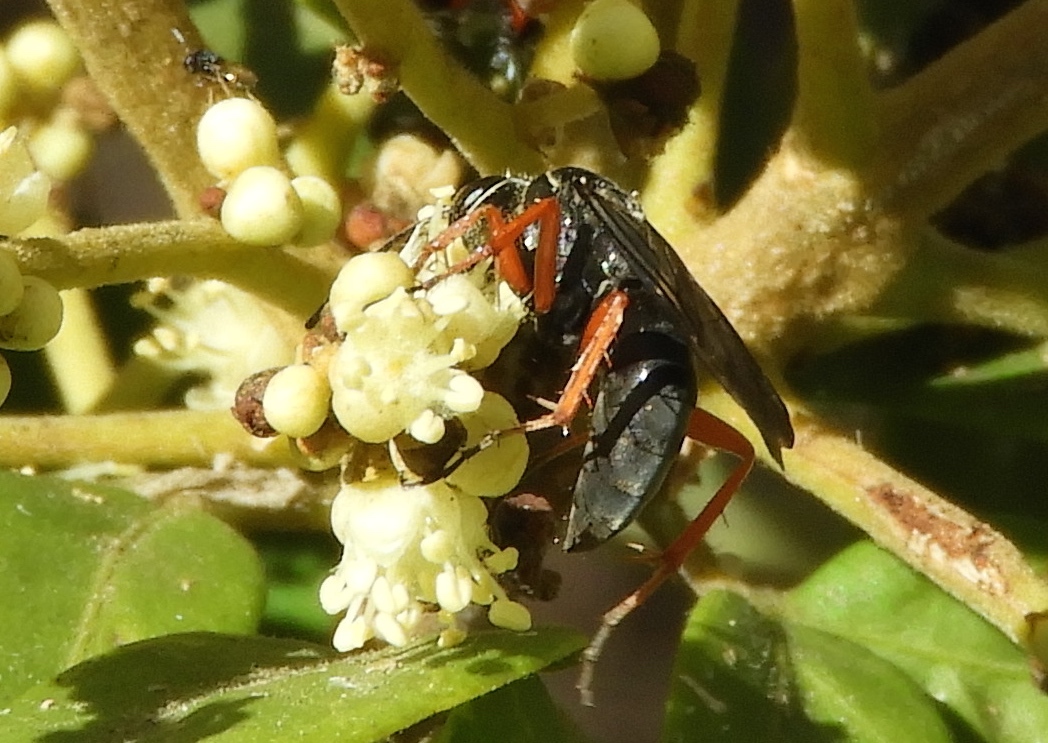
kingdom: Animalia
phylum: Arthropoda
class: Insecta
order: Hymenoptera
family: Pompilidae
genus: Episyron
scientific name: Episyron conterminus
